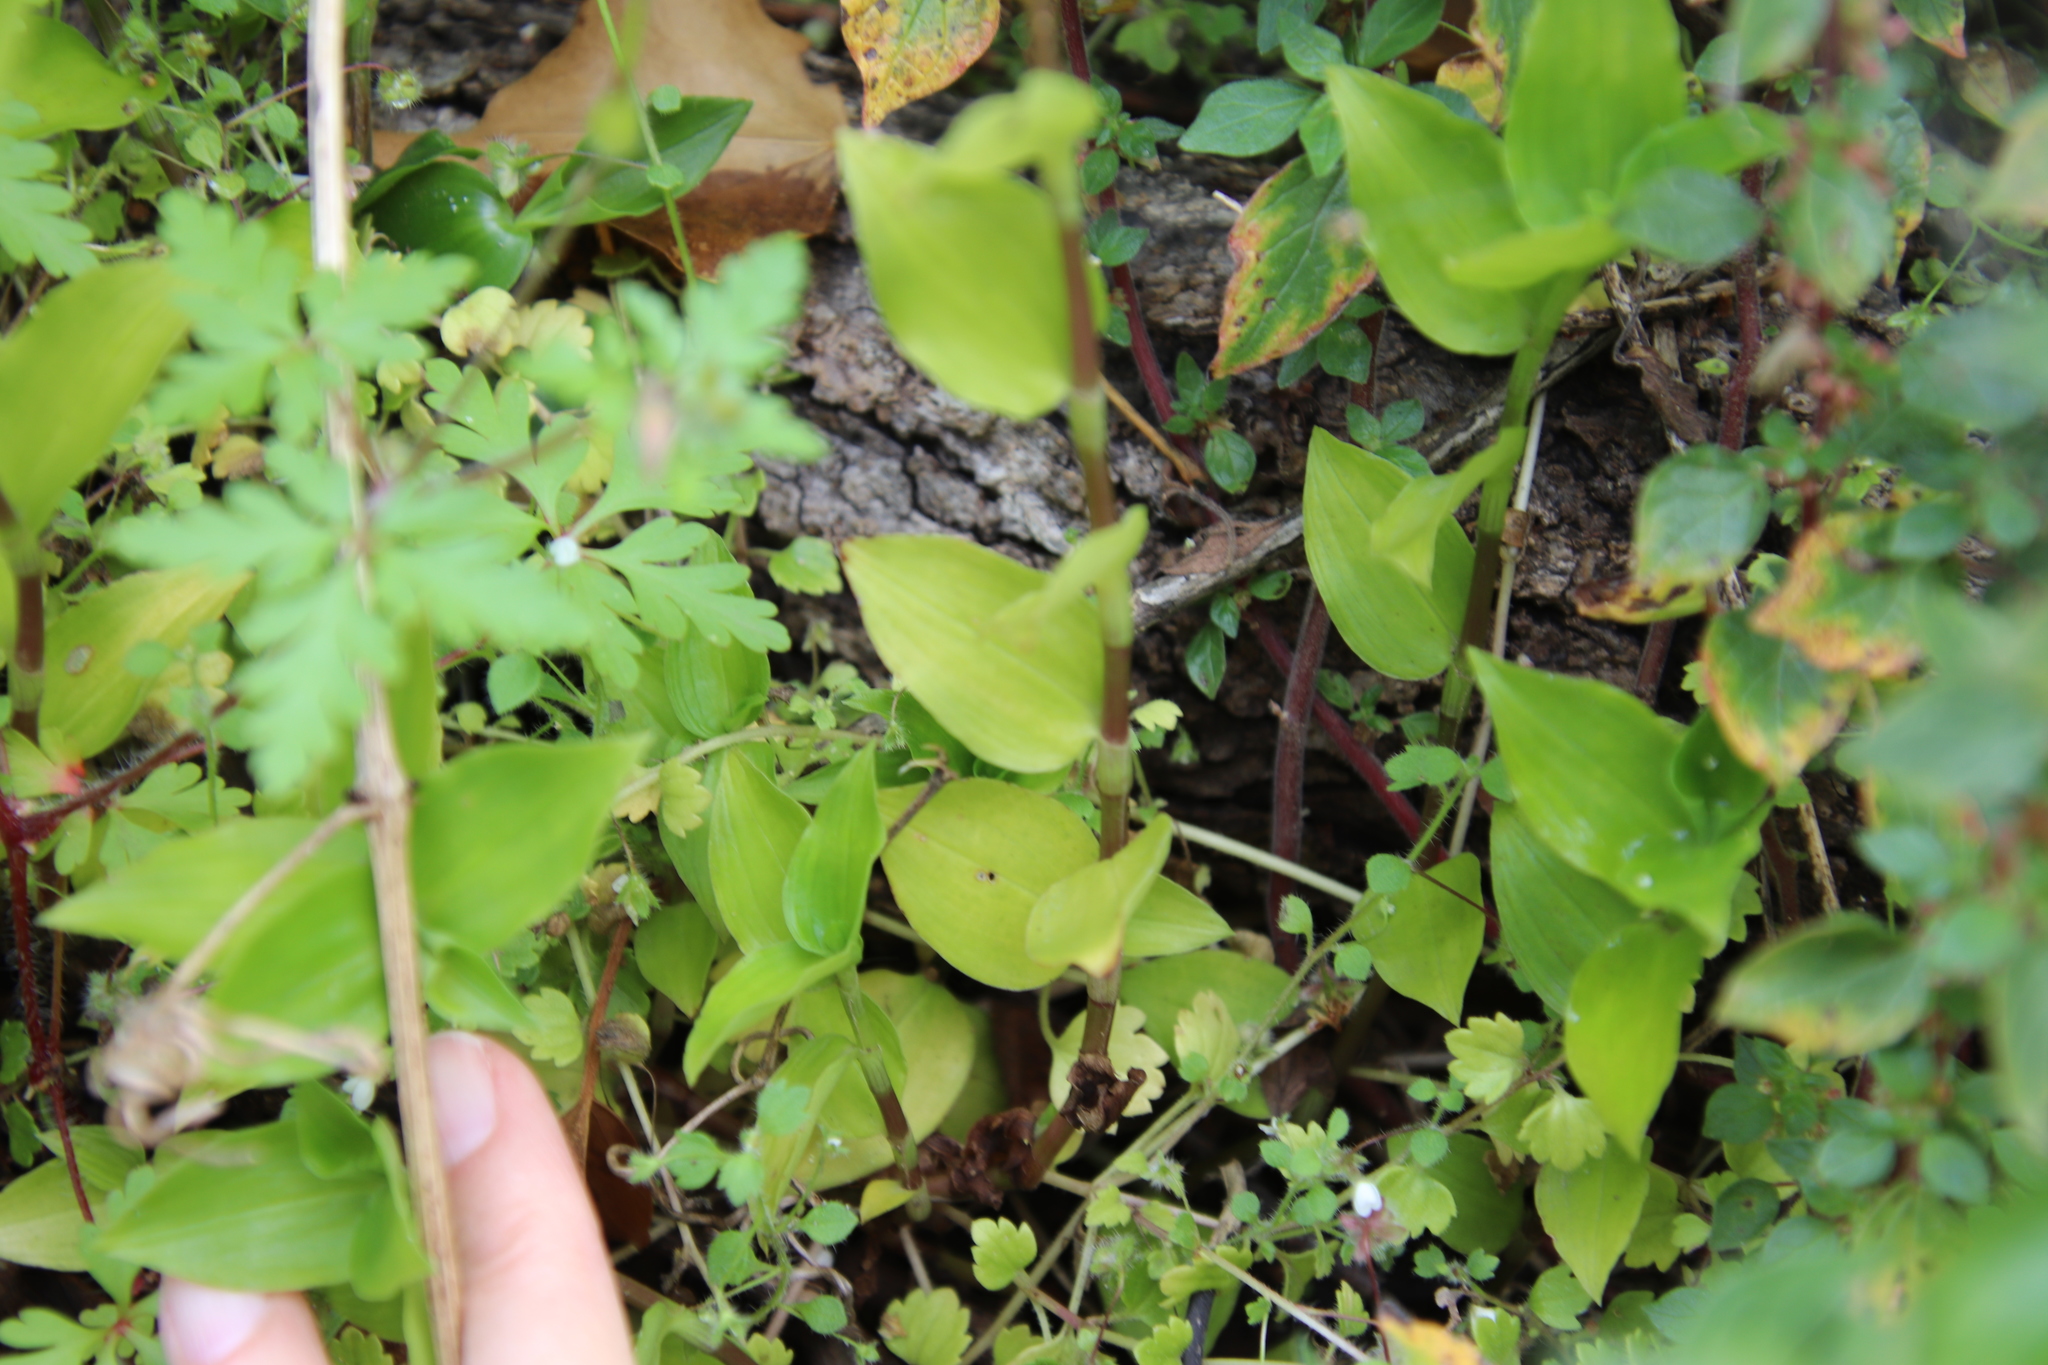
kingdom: Plantae
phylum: Tracheophyta
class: Liliopsida
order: Commelinales
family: Commelinaceae
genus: Tradescantia
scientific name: Tradescantia fluminensis
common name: Wandering-jew
